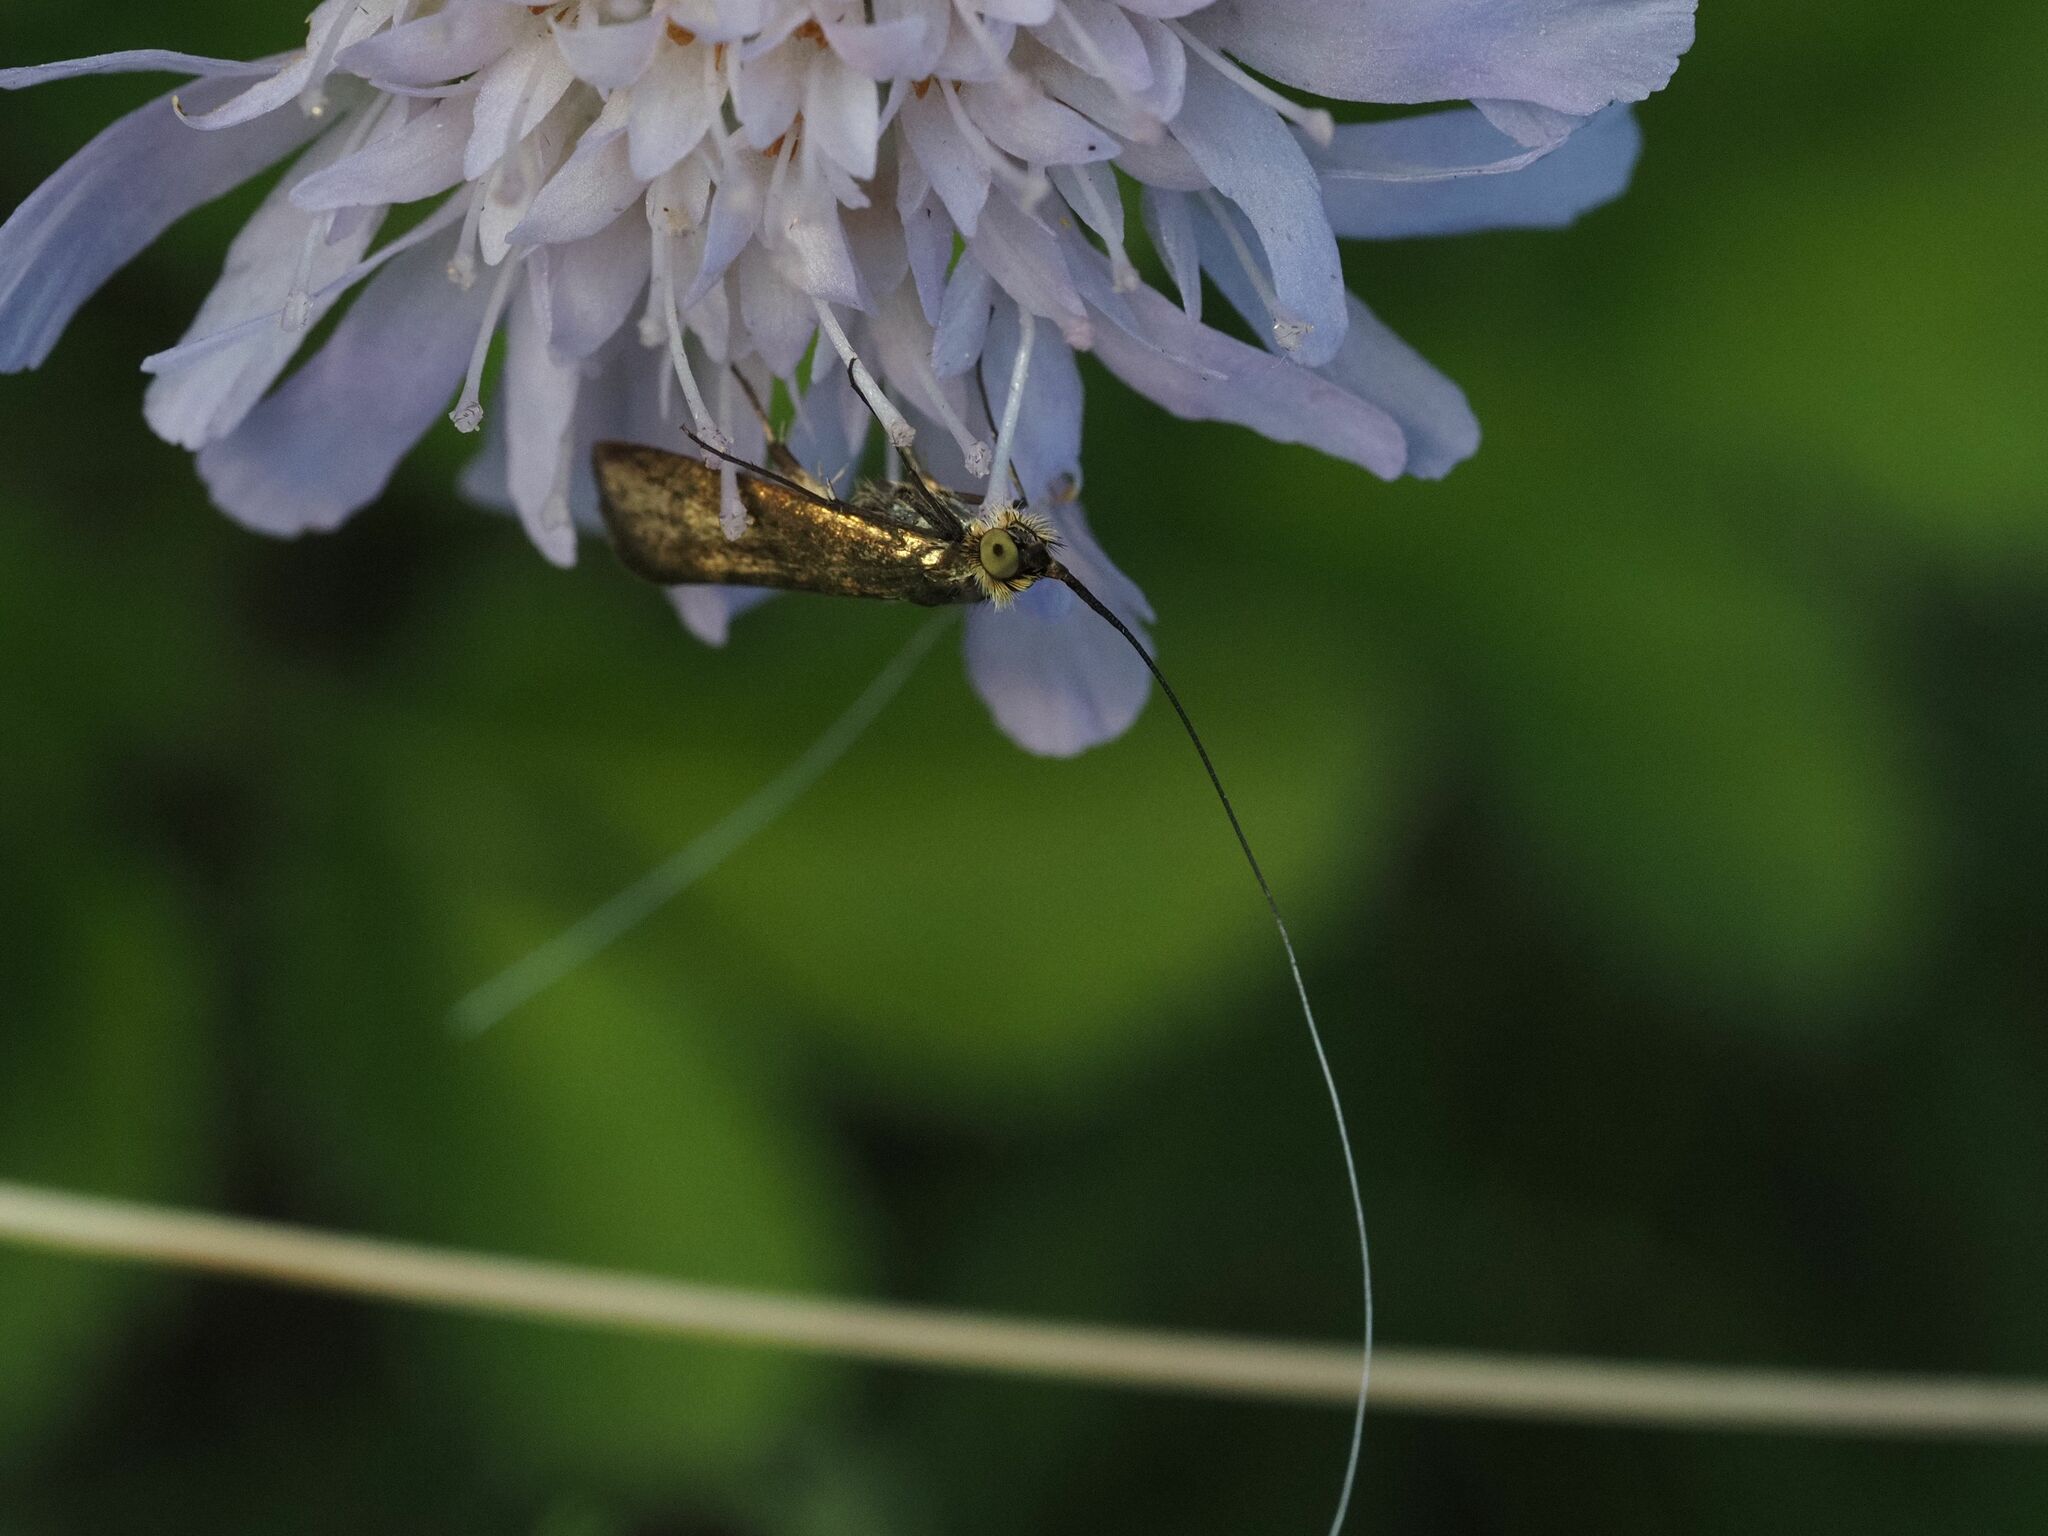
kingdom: Animalia
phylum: Arthropoda
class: Insecta
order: Lepidoptera
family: Adelidae
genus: Nemophora
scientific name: Nemophora metallica
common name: Brassy long-horn
